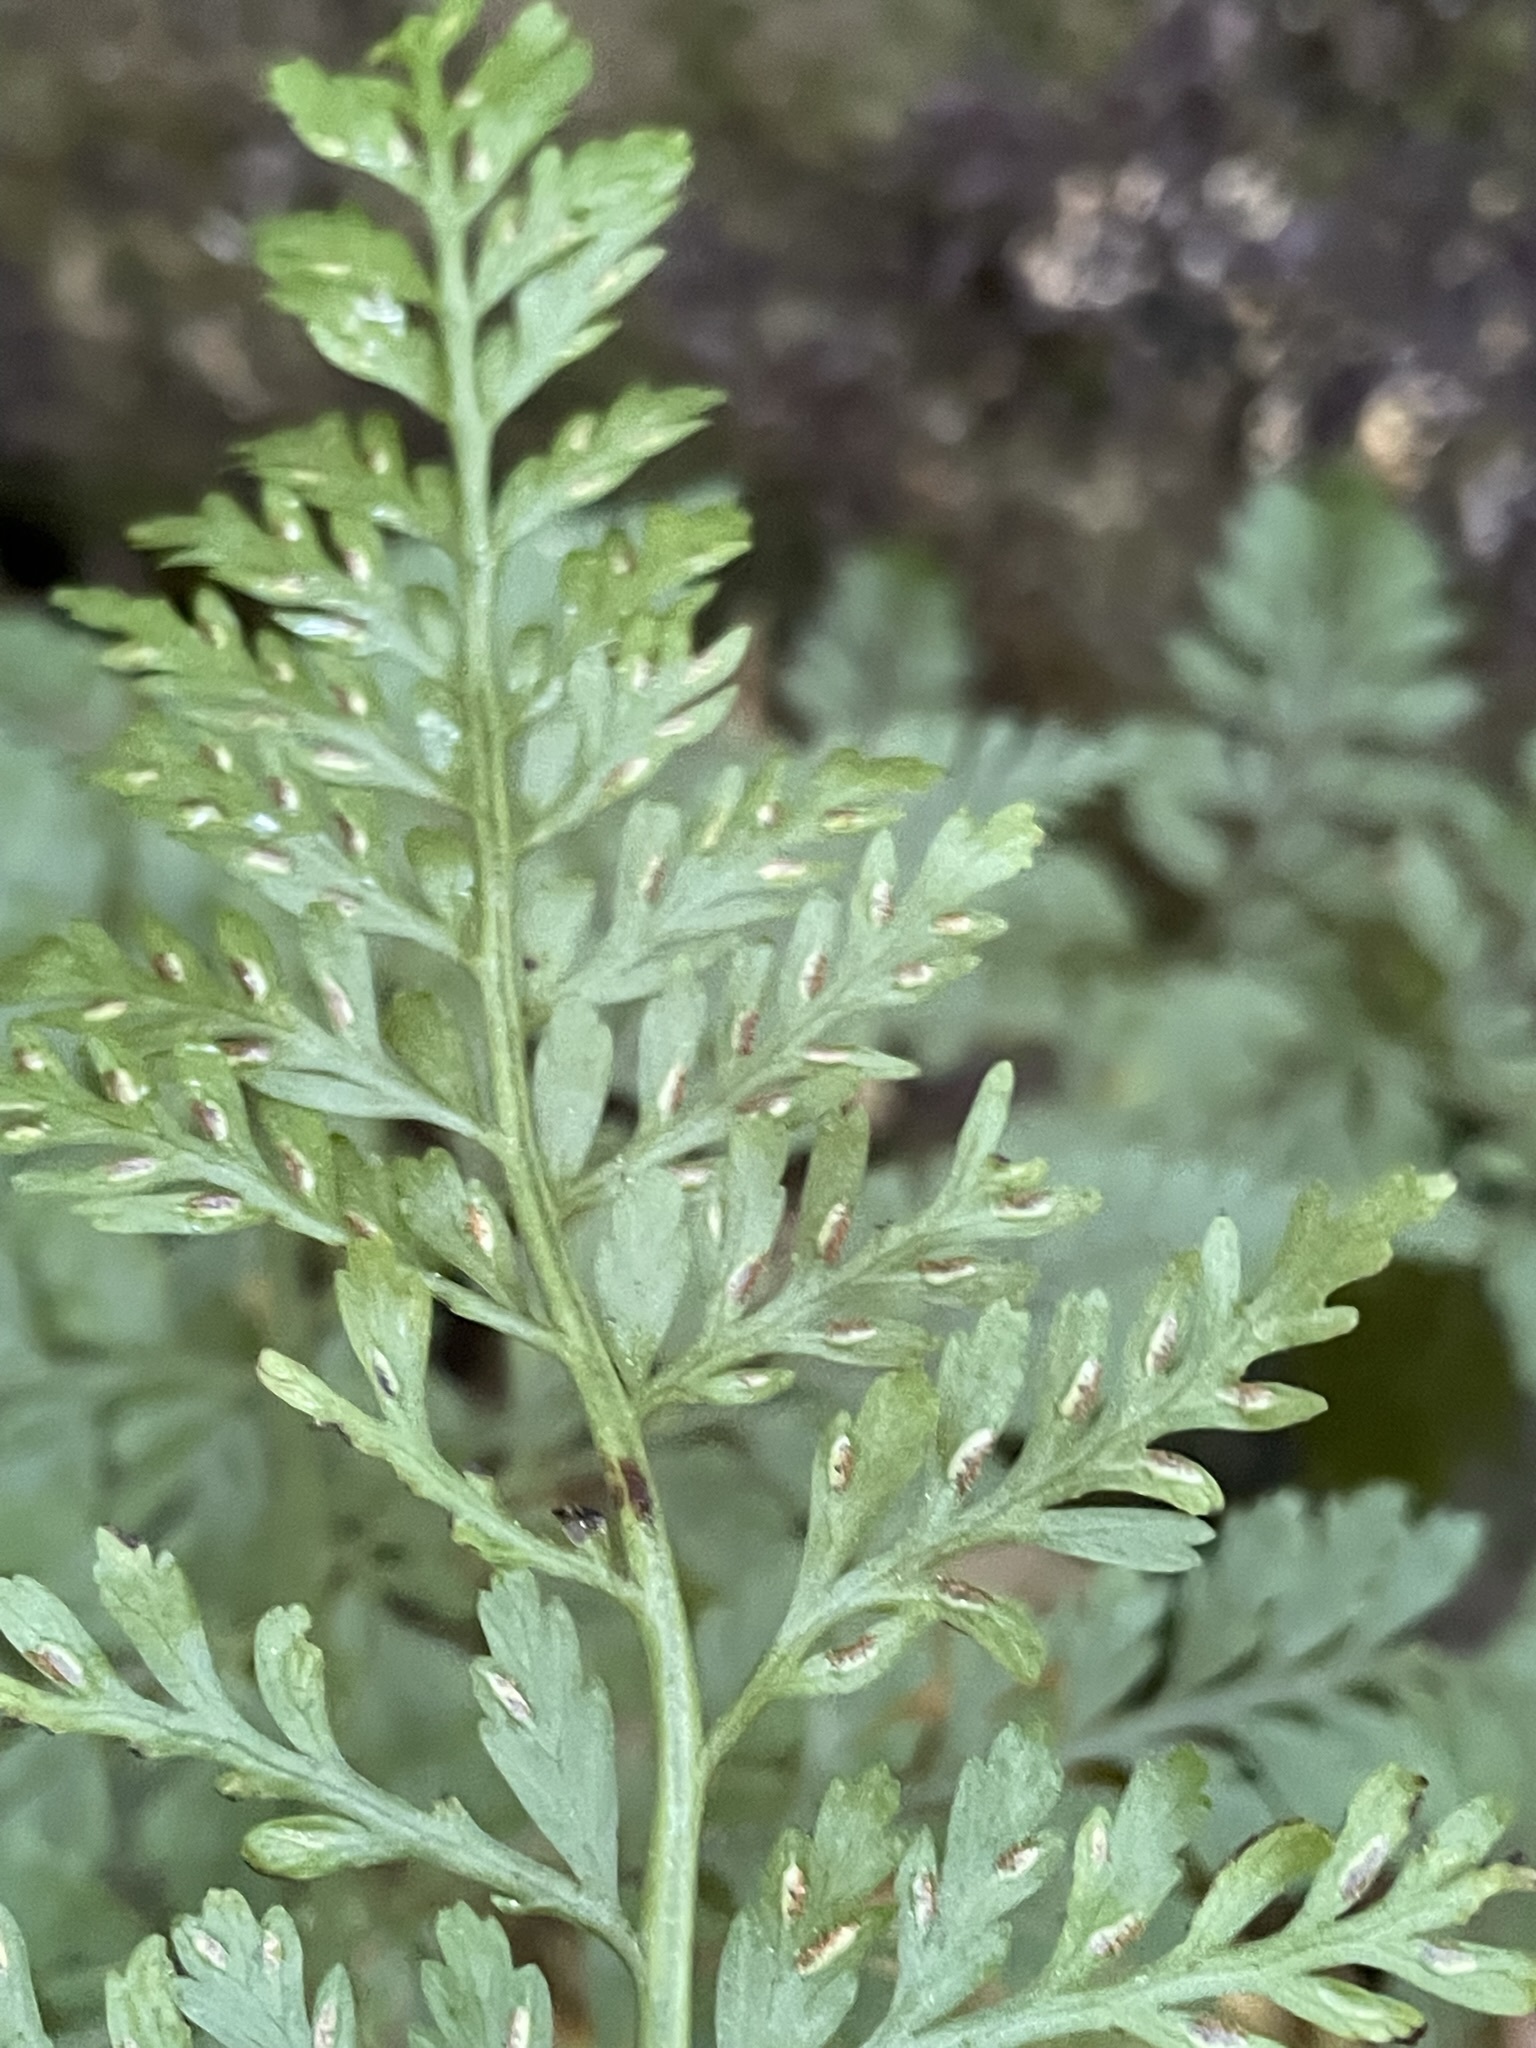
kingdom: Plantae
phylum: Tracheophyta
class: Polypodiopsida
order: Polypodiales
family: Aspleniaceae
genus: Asplenium
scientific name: Asplenium
